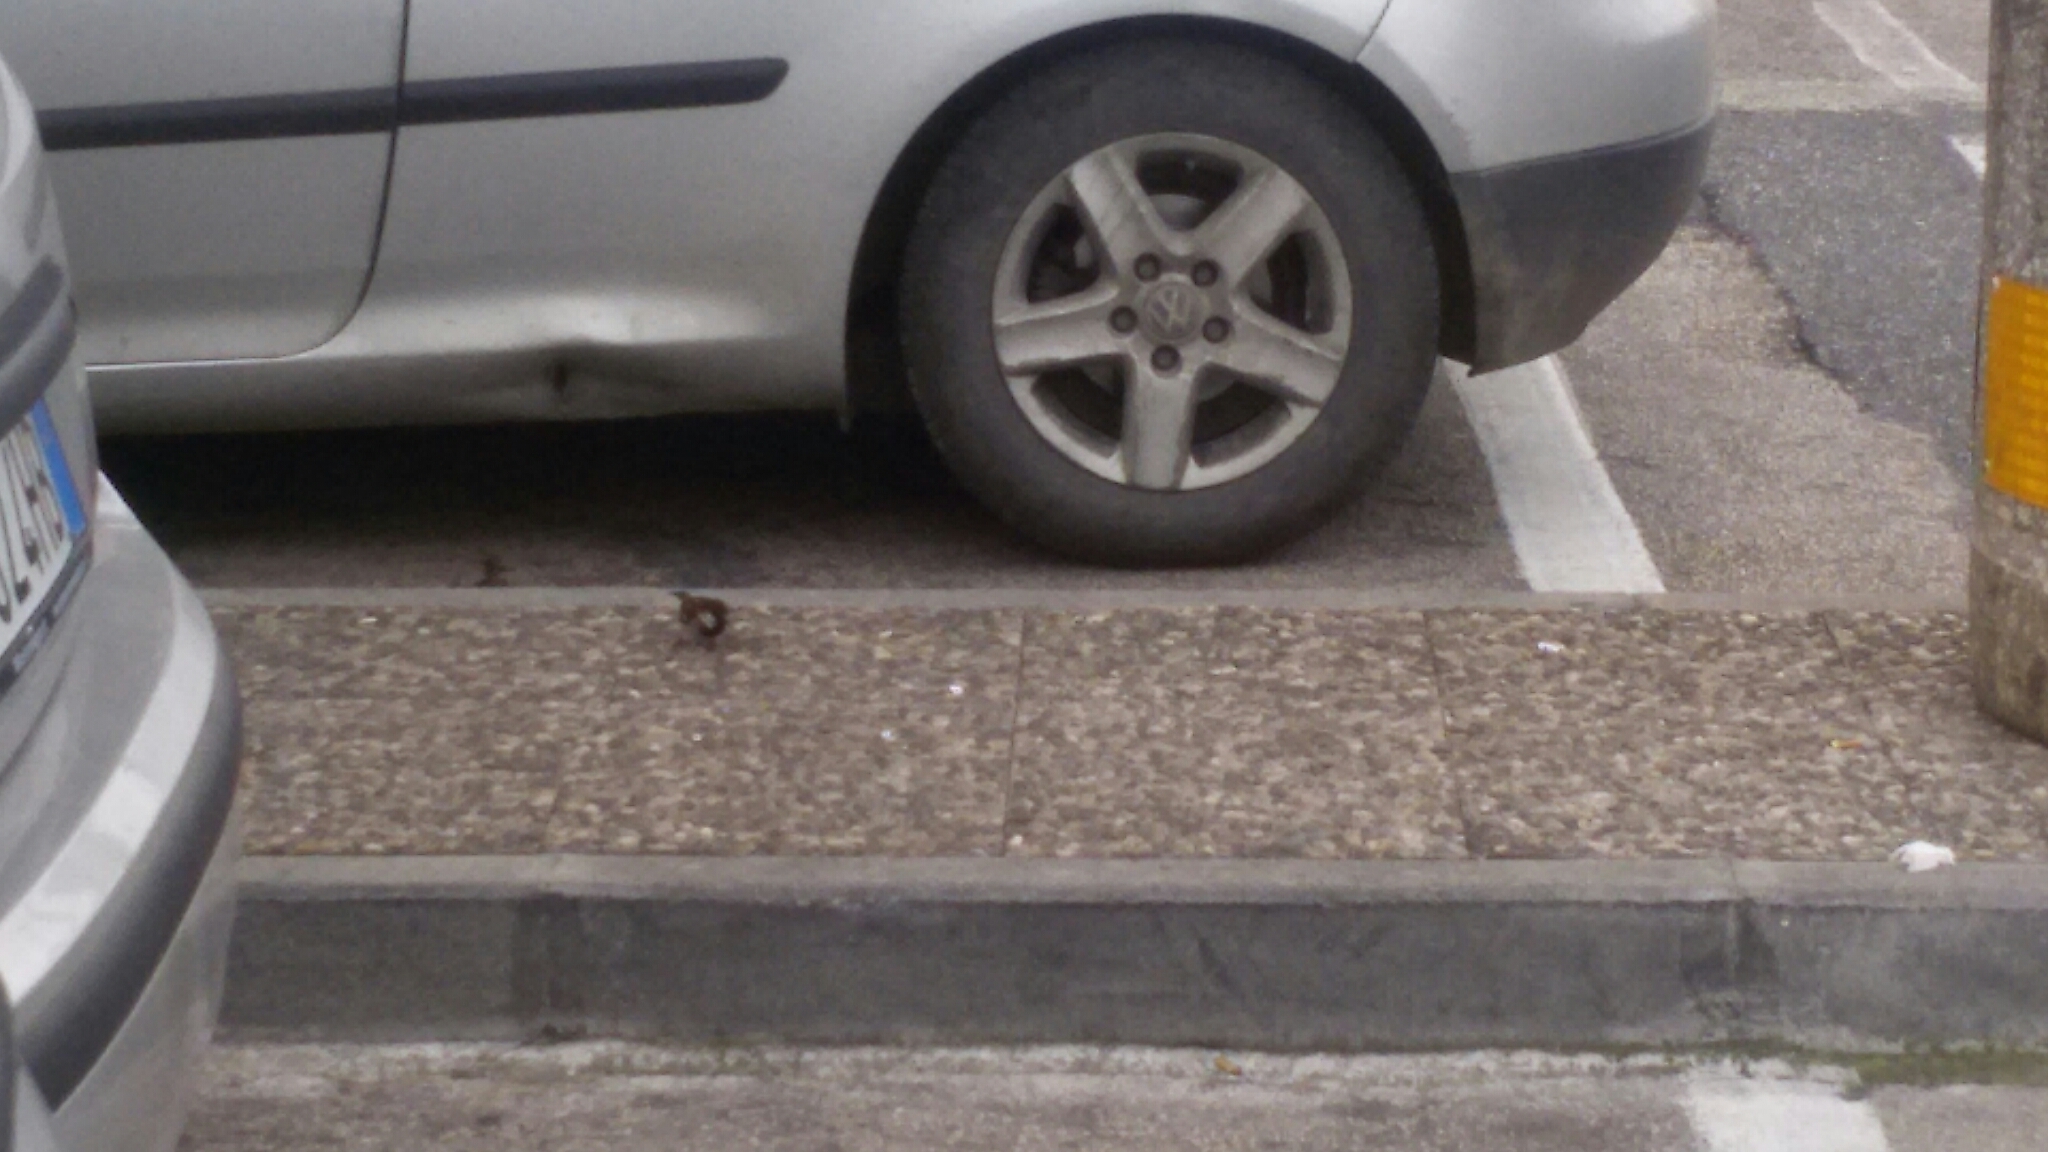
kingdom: Animalia
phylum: Chordata
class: Aves
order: Passeriformes
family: Passeridae
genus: Passer
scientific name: Passer italiae
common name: Italian sparrow
